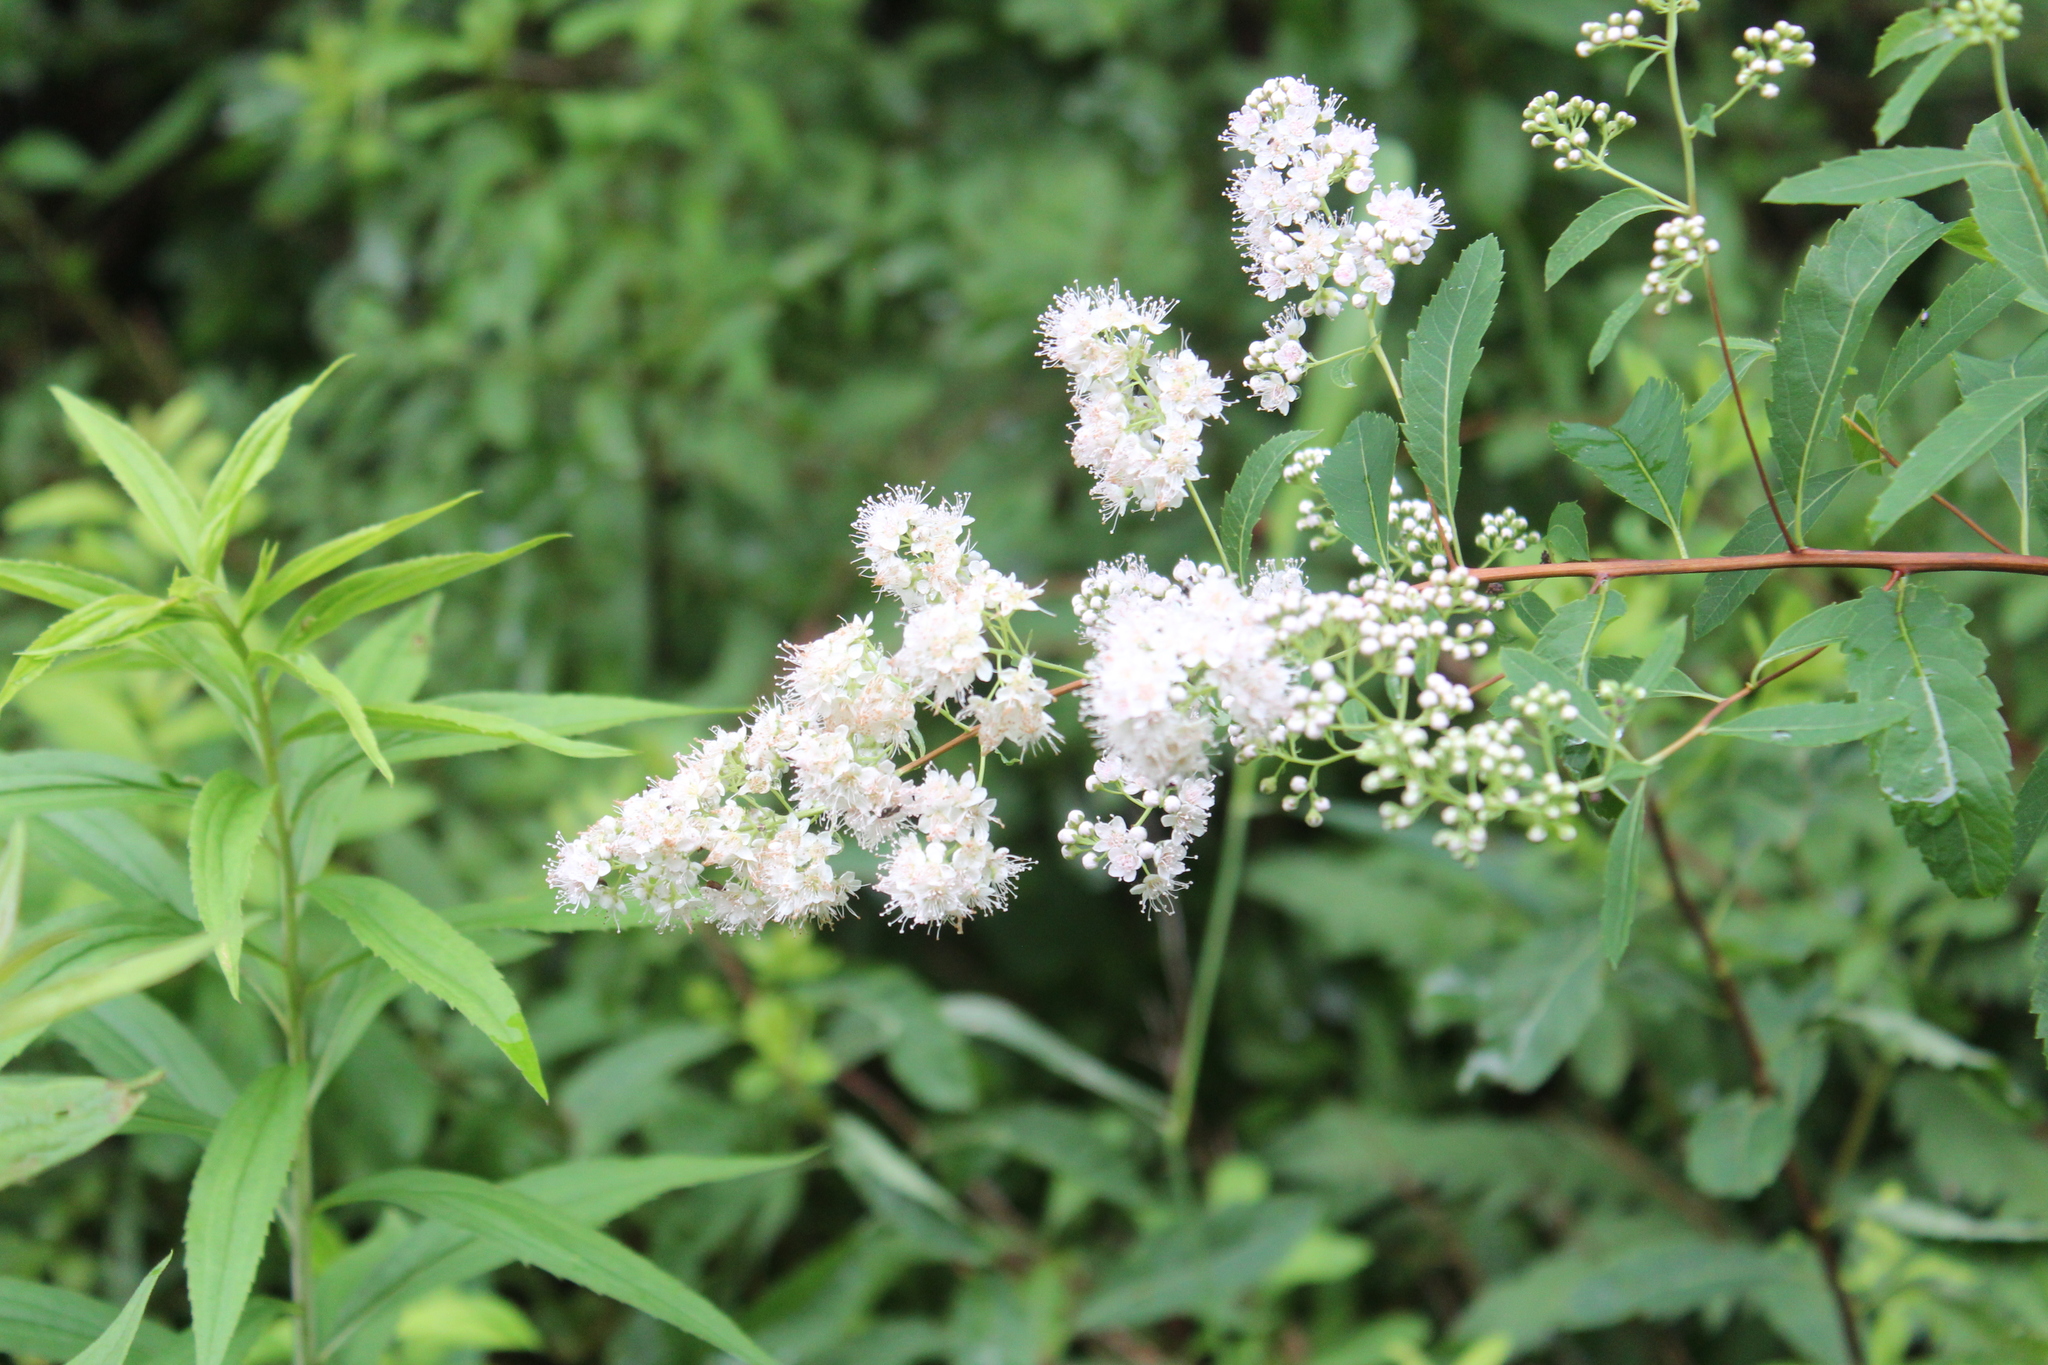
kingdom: Plantae
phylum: Tracheophyta
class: Magnoliopsida
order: Rosales
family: Rosaceae
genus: Spiraea
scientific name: Spiraea alba
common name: Pale bridewort
